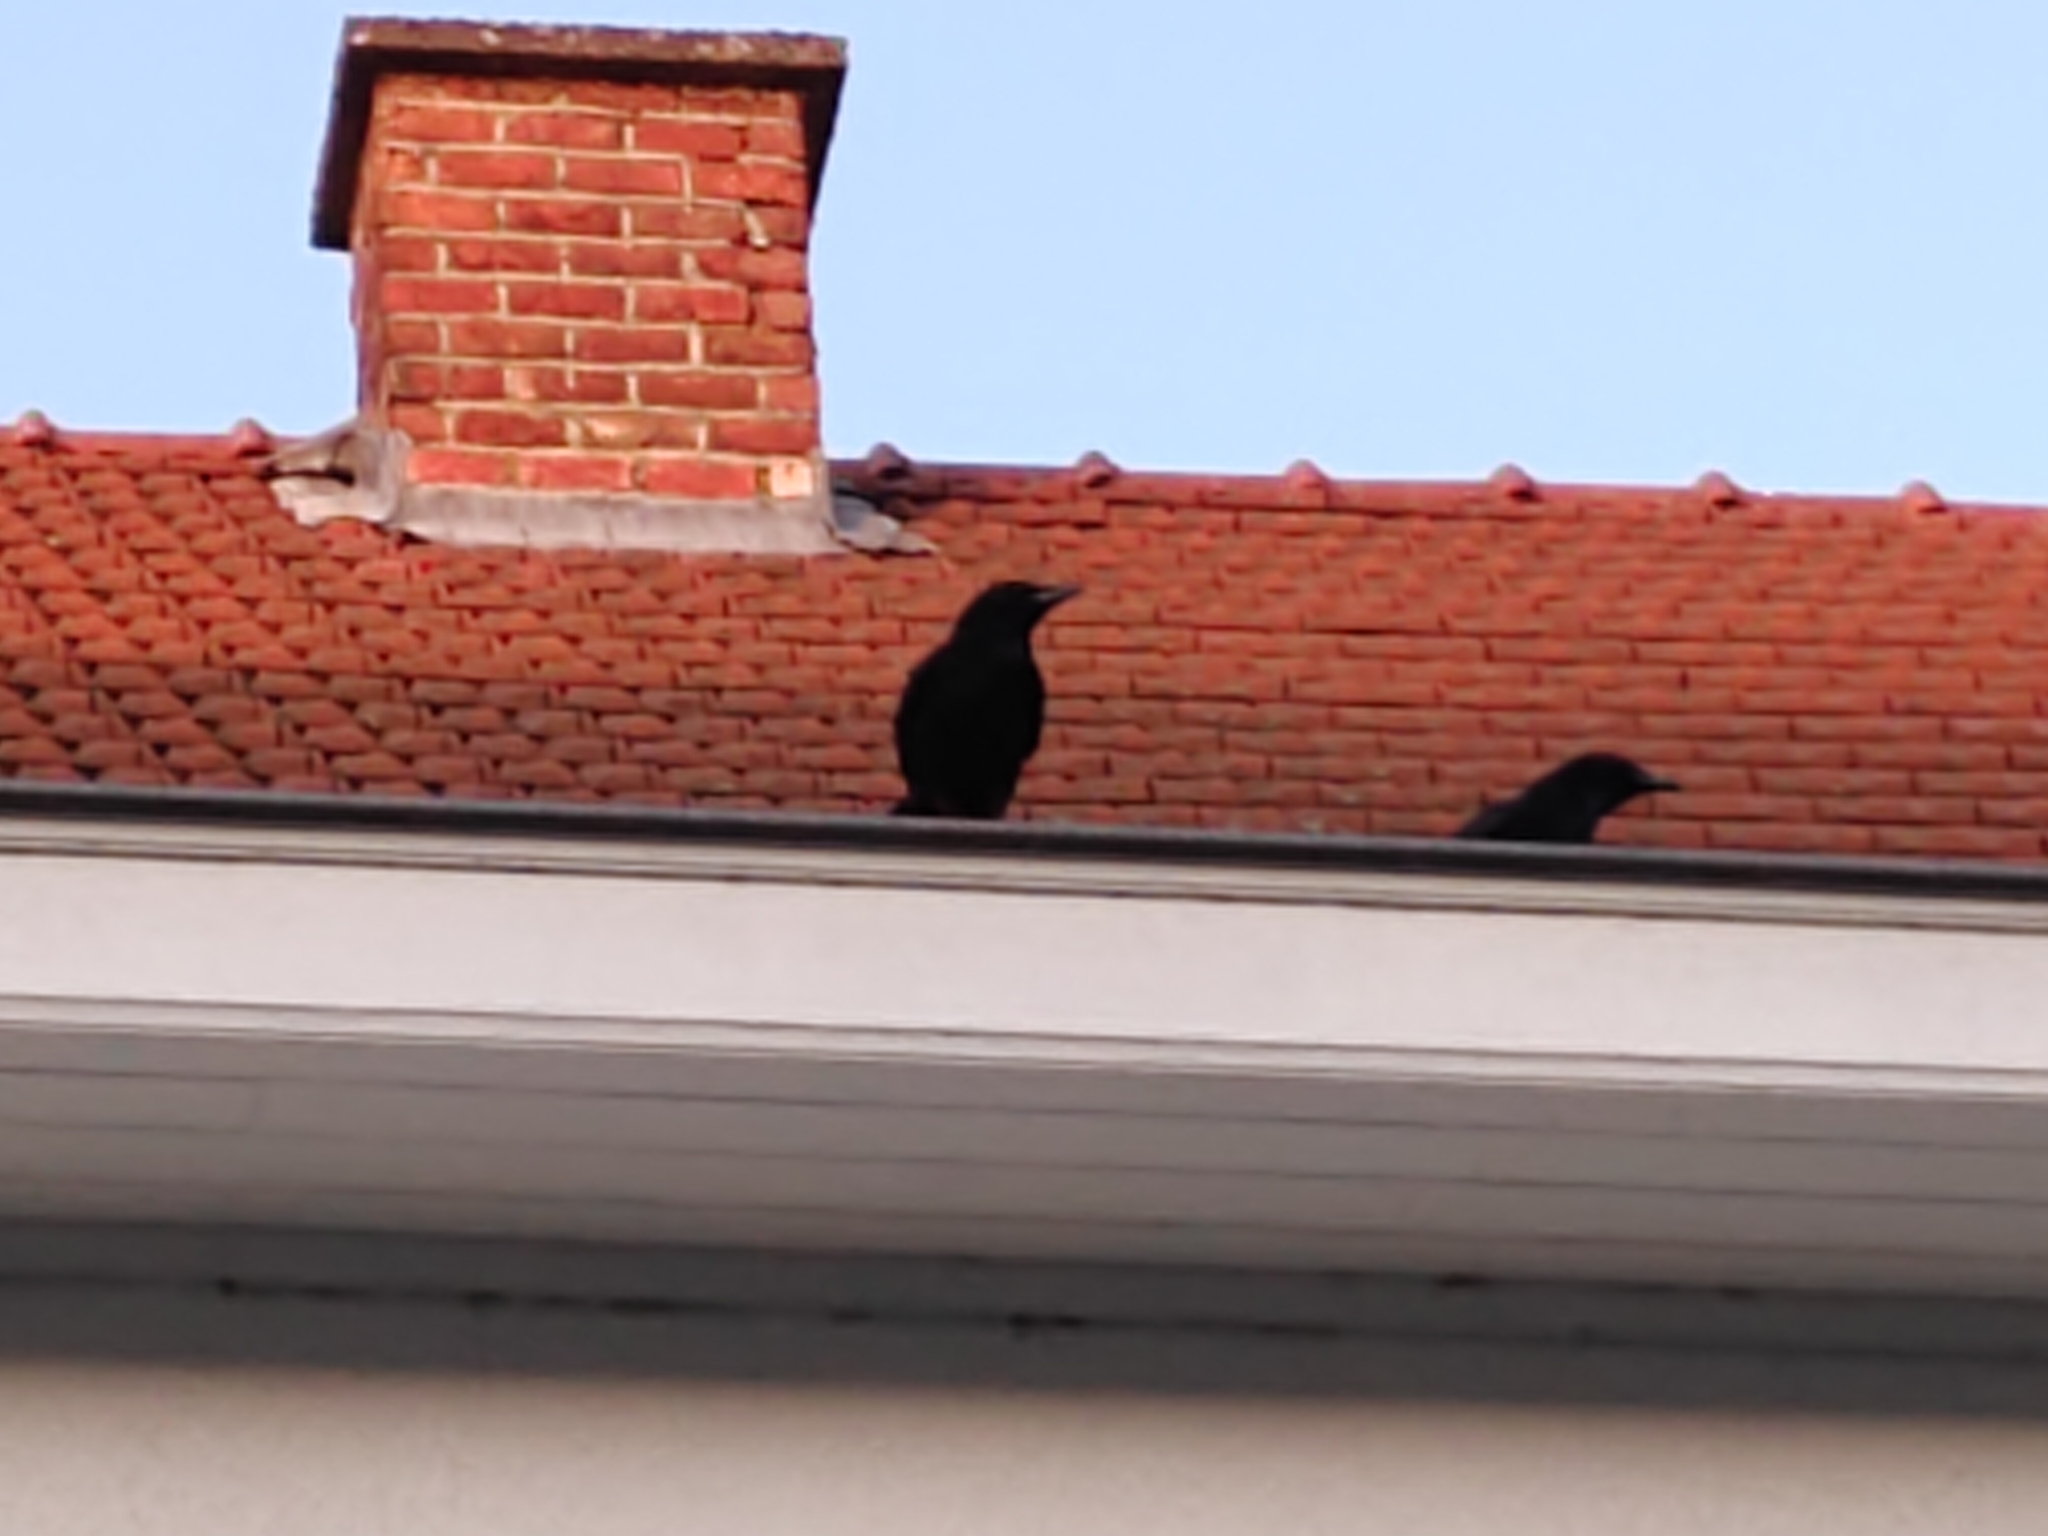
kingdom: Animalia
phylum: Chordata
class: Aves
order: Passeriformes
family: Corvidae
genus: Corvus
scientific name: Corvus corone
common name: Carrion crow
